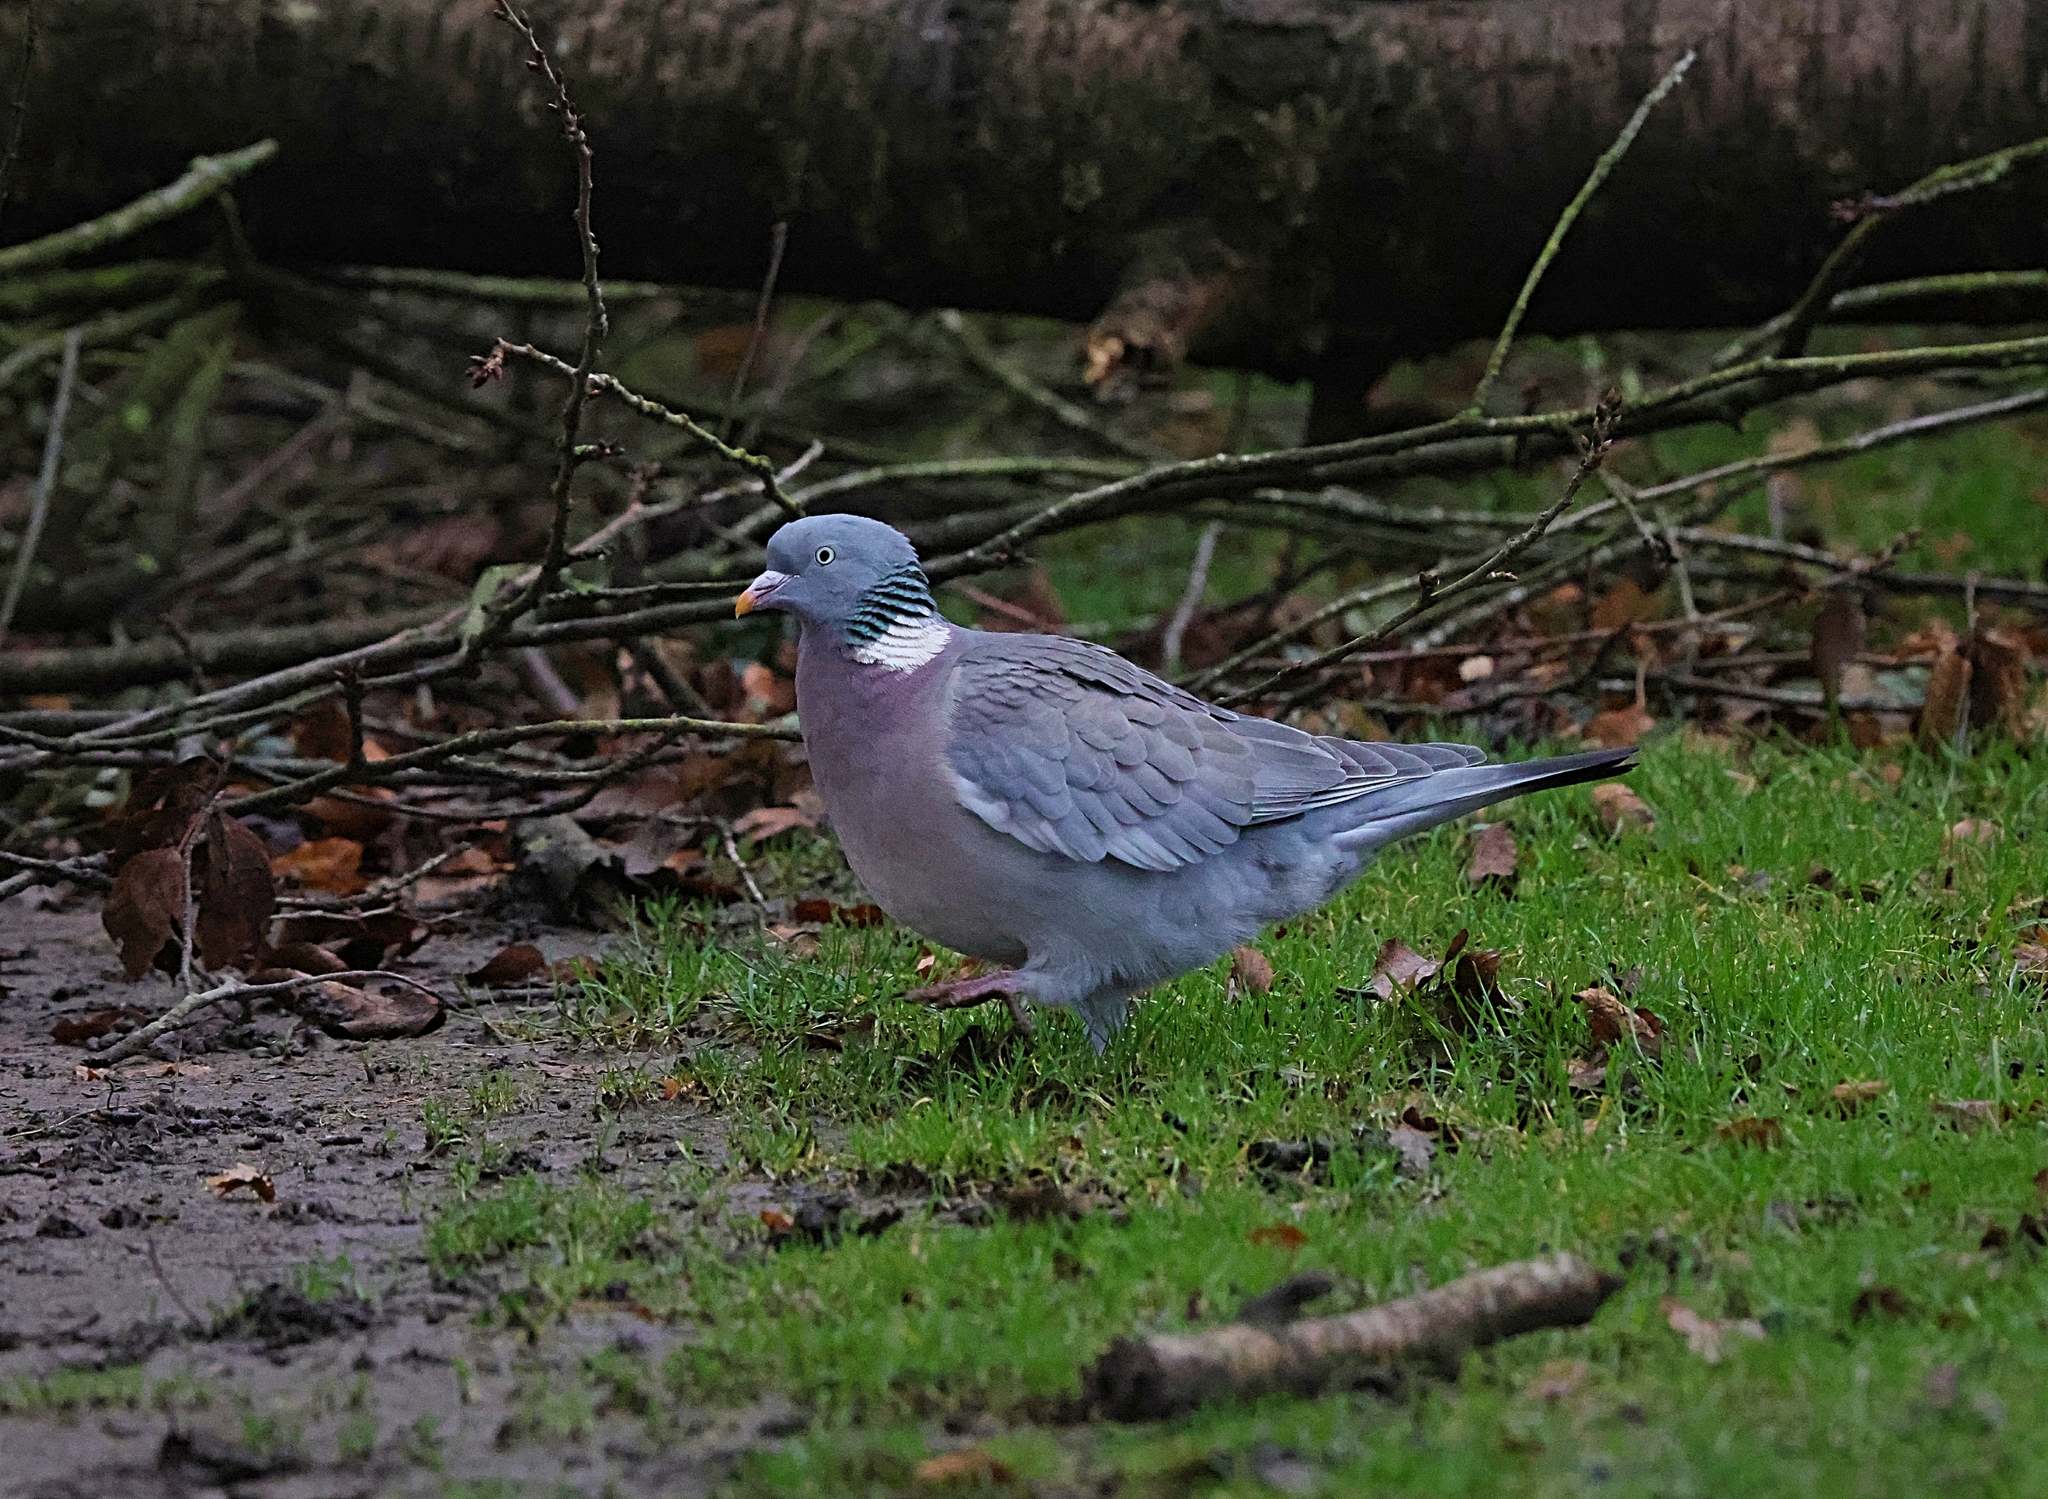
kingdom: Animalia
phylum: Chordata
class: Aves
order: Columbiformes
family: Columbidae
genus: Columba
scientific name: Columba palumbus
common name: Common wood pigeon
